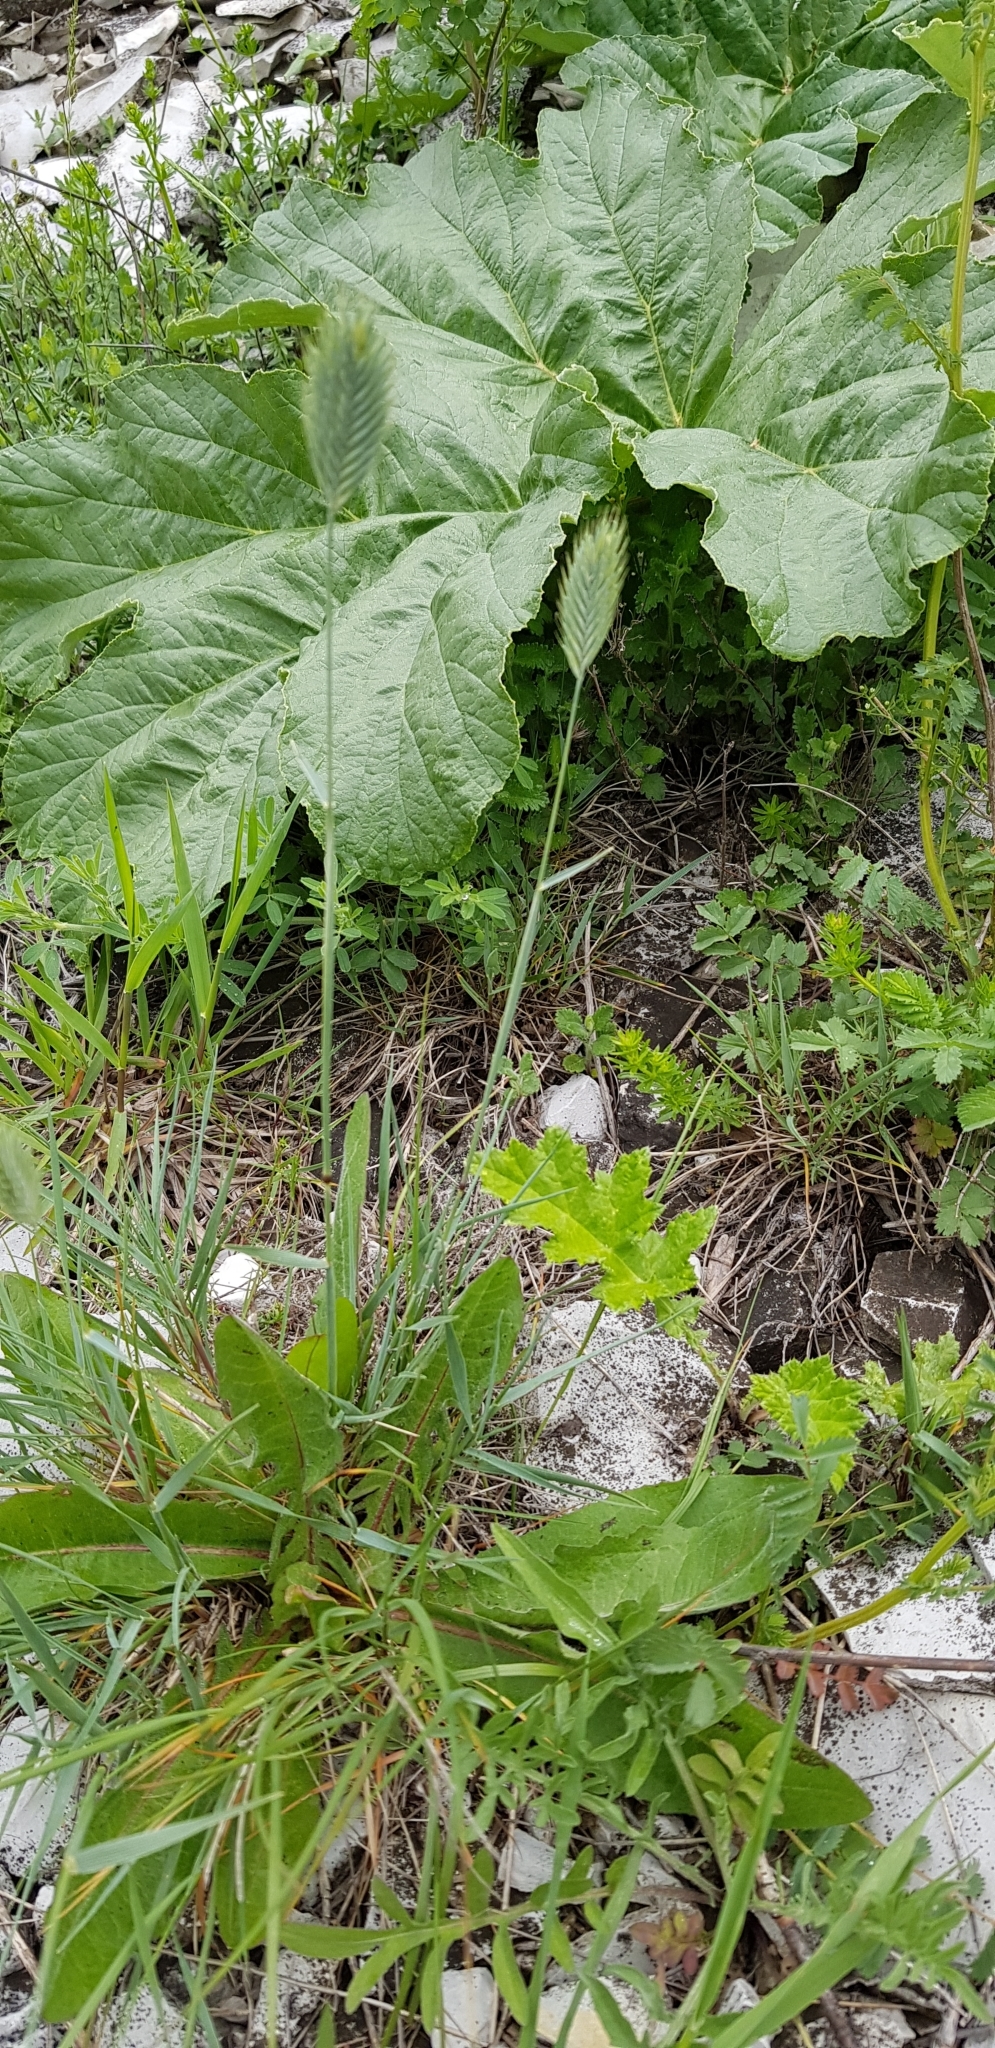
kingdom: Plantae
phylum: Tracheophyta
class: Liliopsida
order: Poales
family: Poaceae
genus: Agropyron
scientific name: Agropyron cristatum
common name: Crested wheatgrass
